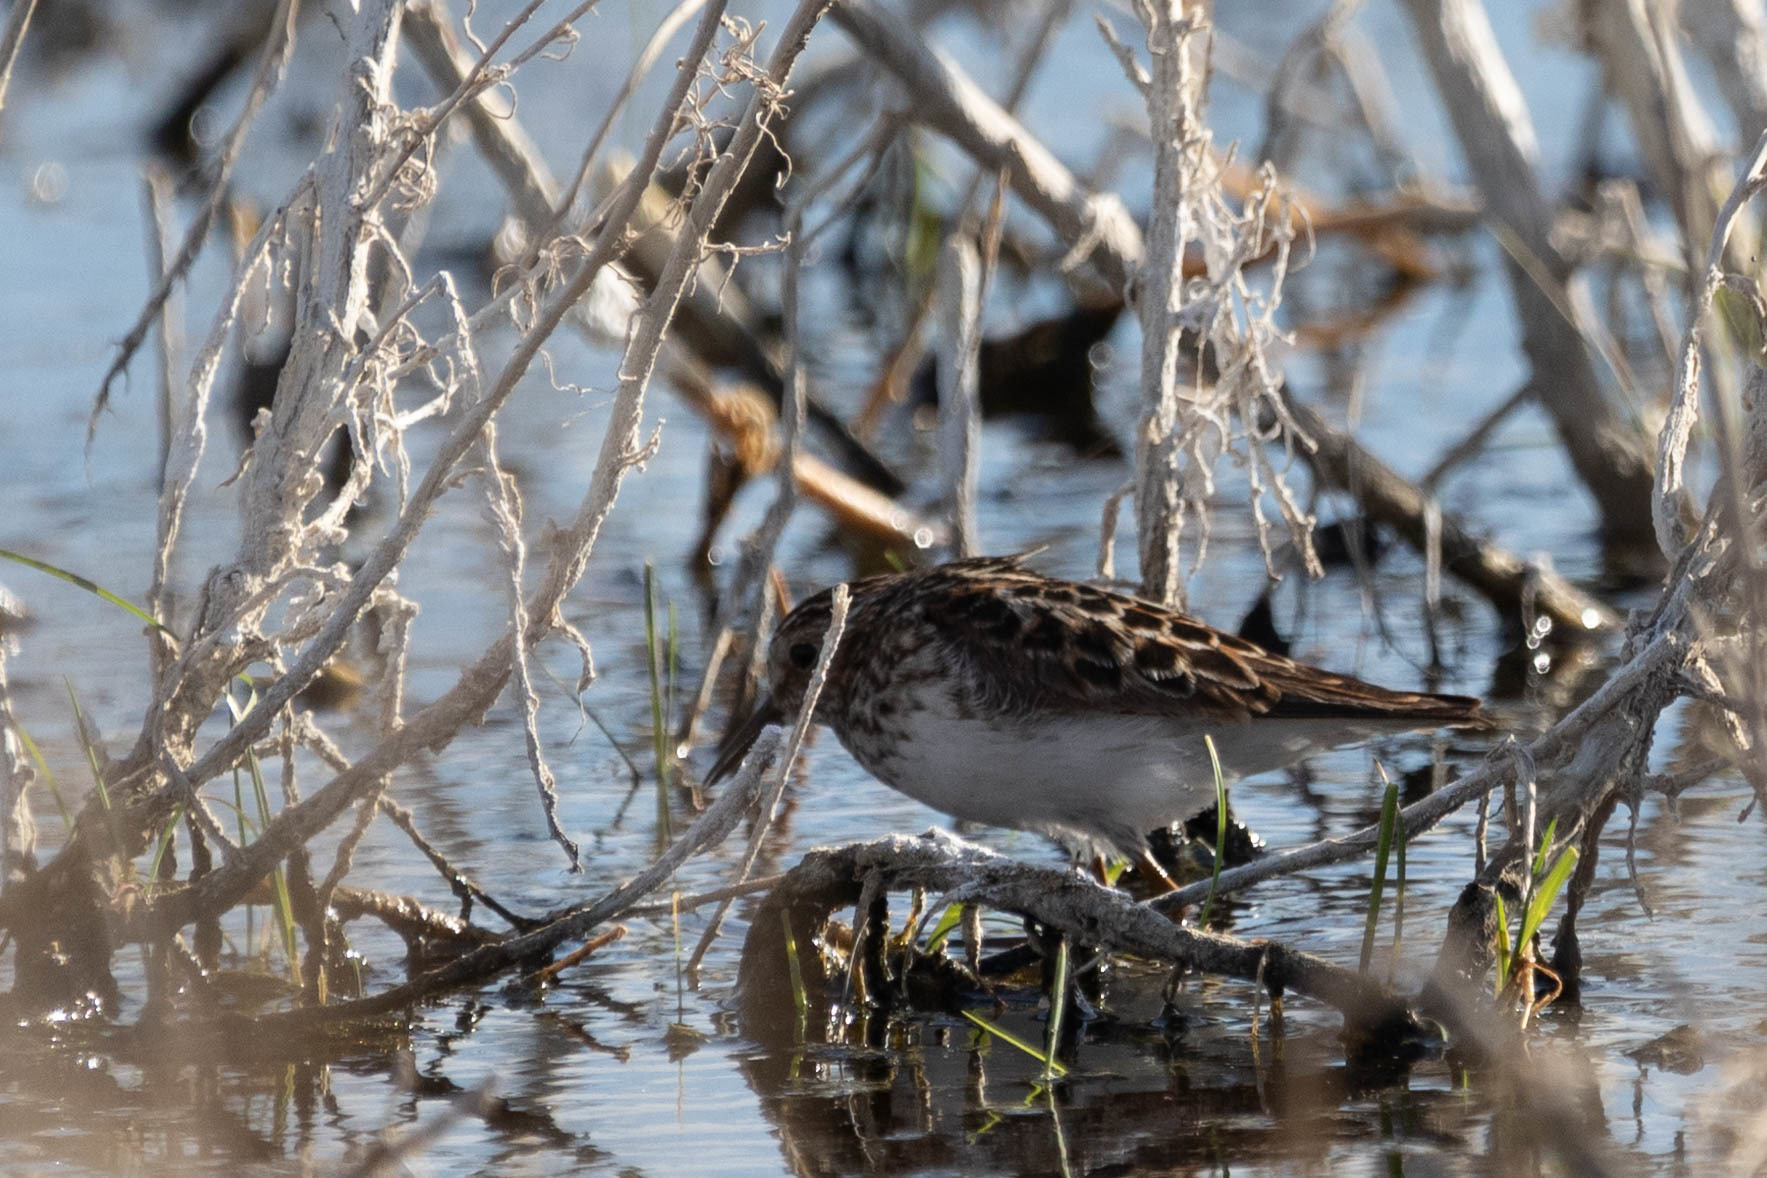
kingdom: Animalia
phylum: Chordata
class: Aves
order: Charadriiformes
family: Scolopacidae
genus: Calidris
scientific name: Calidris minutilla
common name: Least sandpiper
